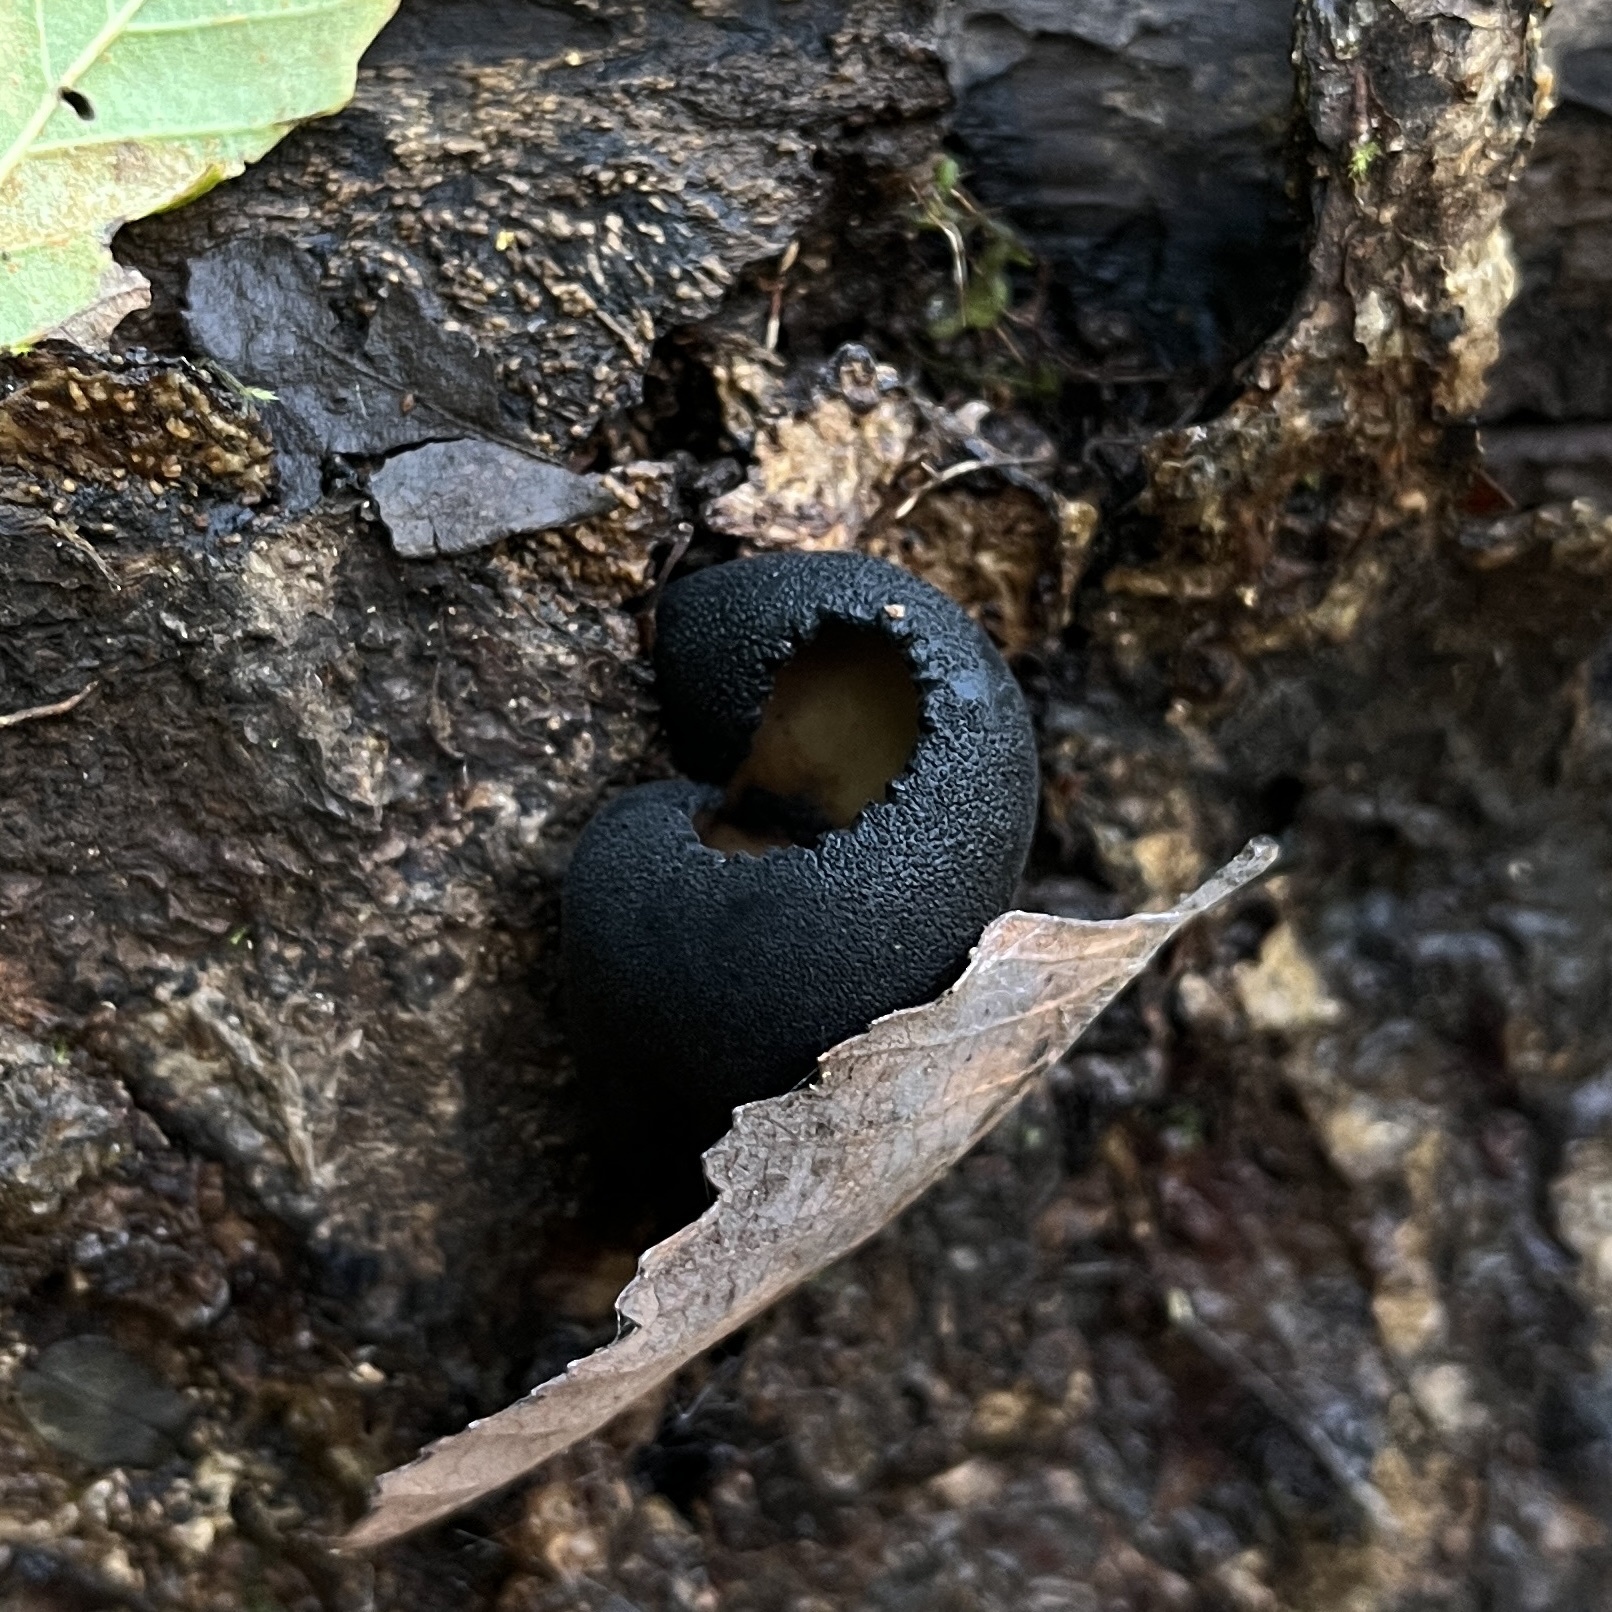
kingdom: Fungi
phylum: Ascomycota
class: Pezizomycetes
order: Pezizales
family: Sarcosomataceae
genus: Plectania
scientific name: Plectania chilensis
